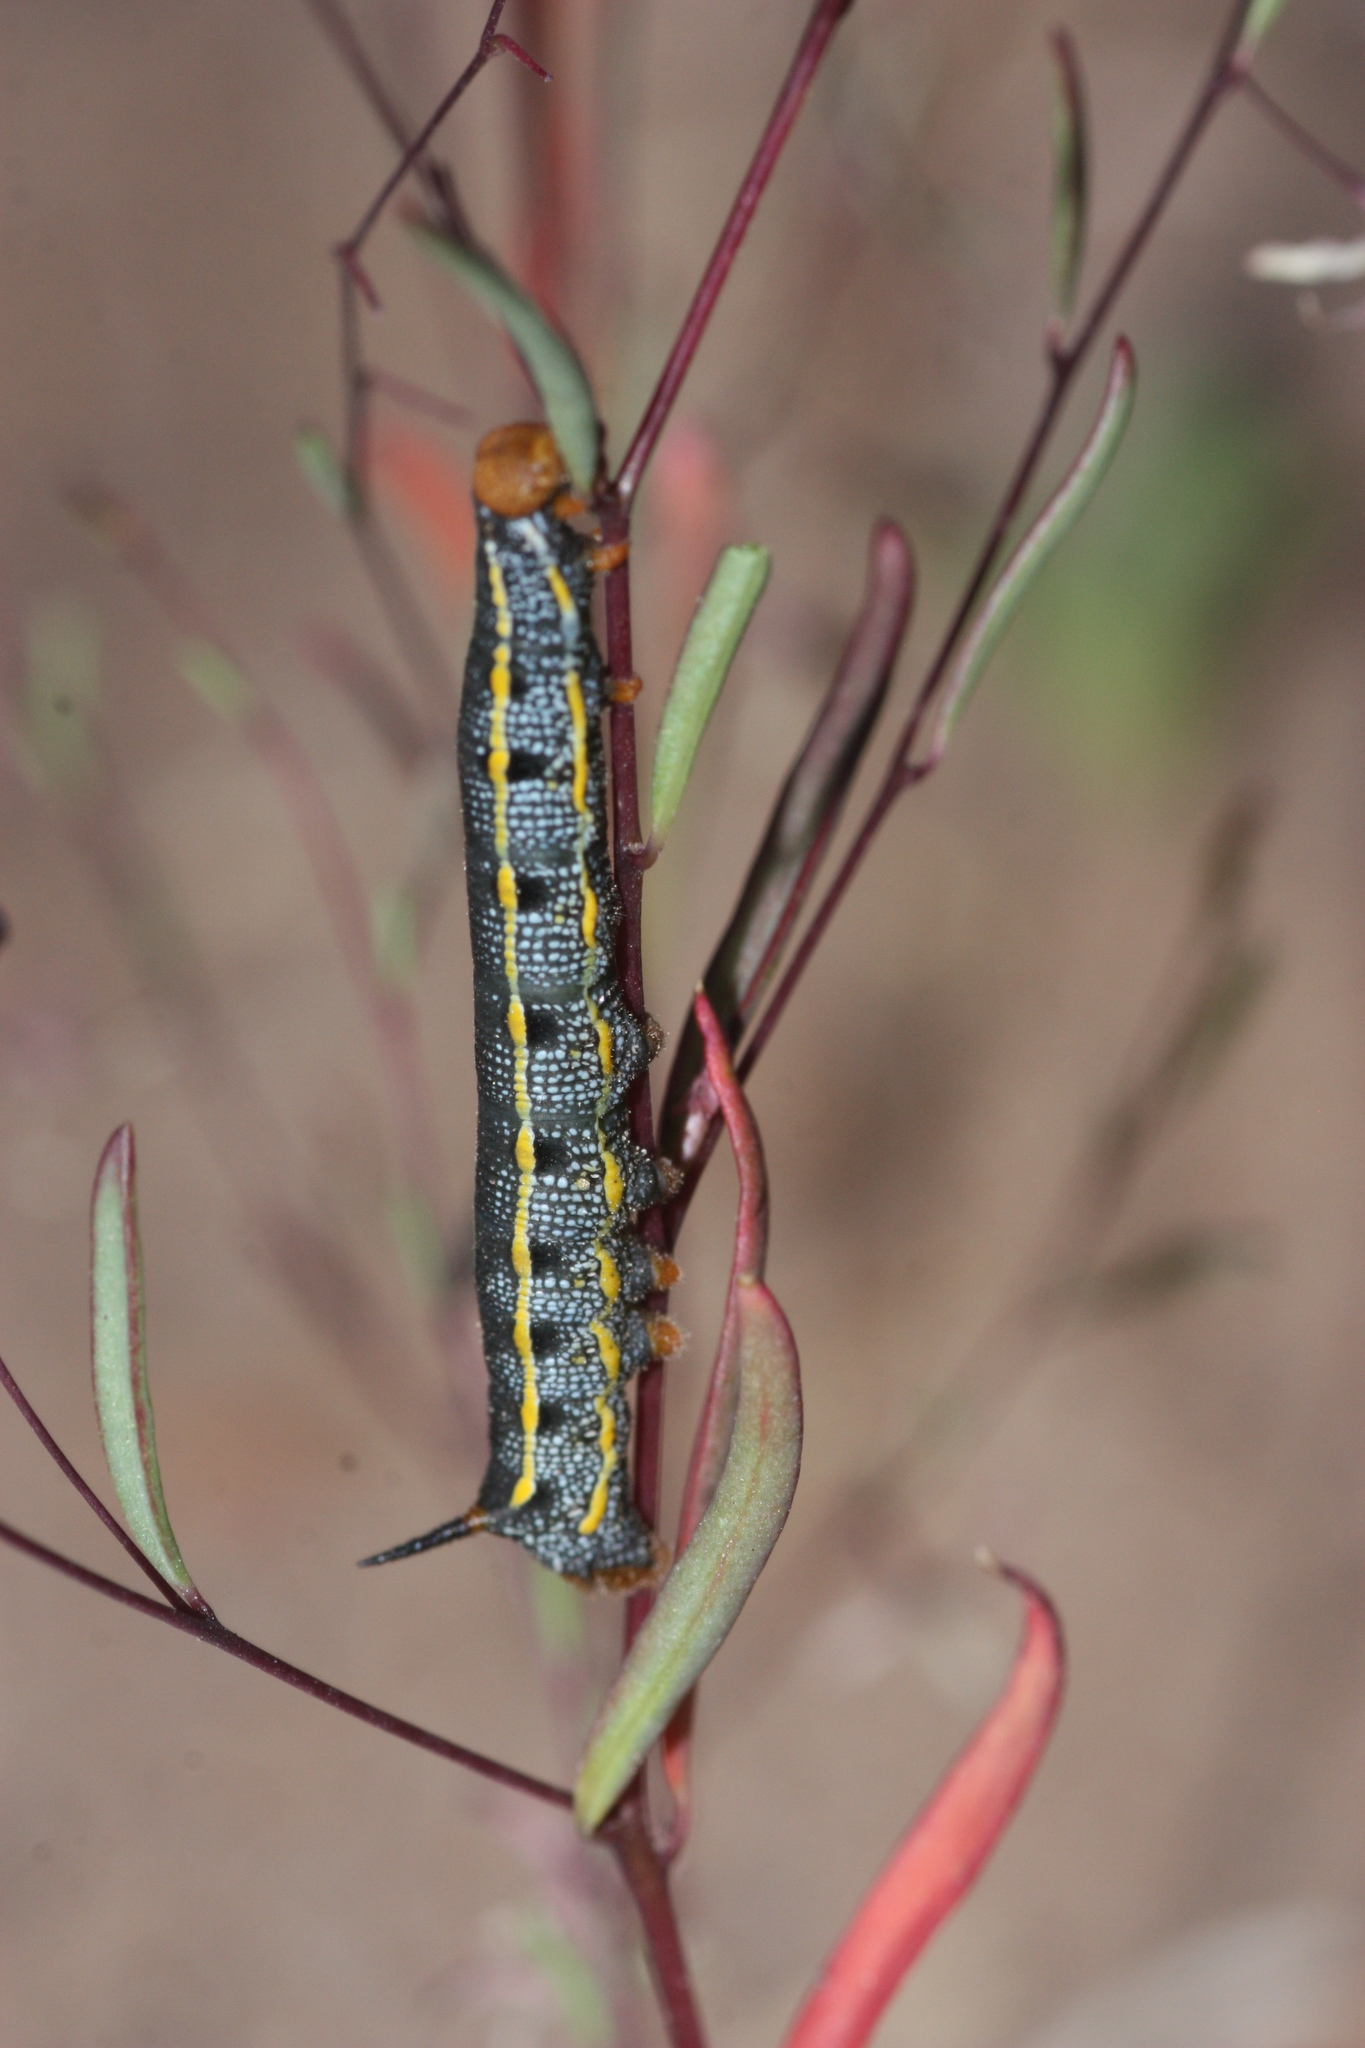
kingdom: Animalia
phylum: Arthropoda
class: Insecta
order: Lepidoptera
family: Sphingidae
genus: Hyles
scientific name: Hyles lineata
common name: White-lined sphinx
